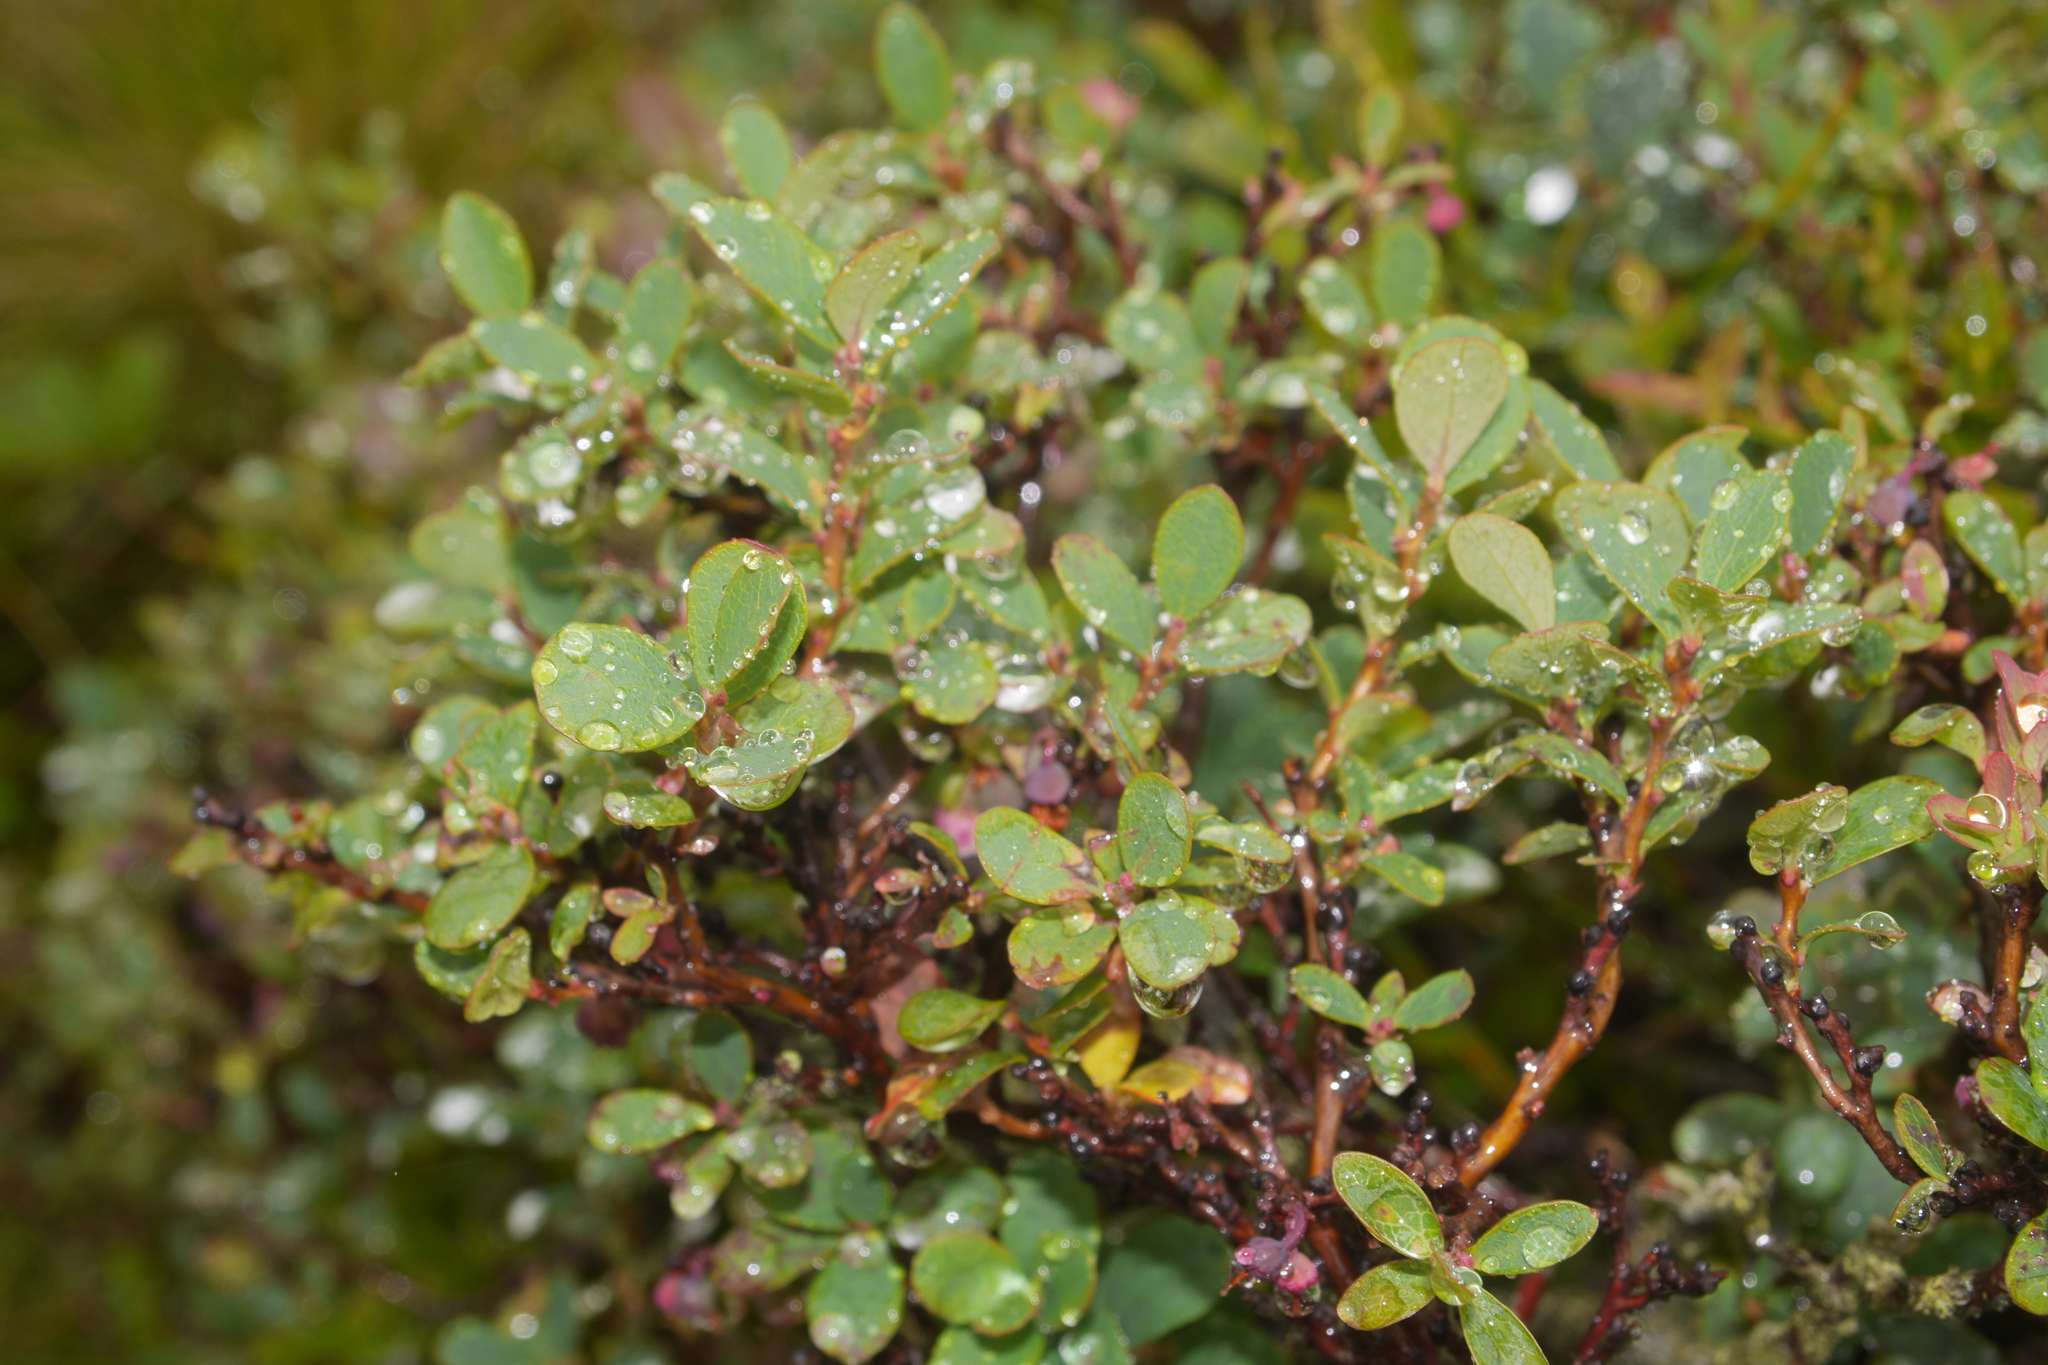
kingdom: Plantae
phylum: Tracheophyta
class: Magnoliopsida
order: Ericales
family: Ericaceae
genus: Vaccinium
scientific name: Vaccinium uliginosum
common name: Bog bilberry
